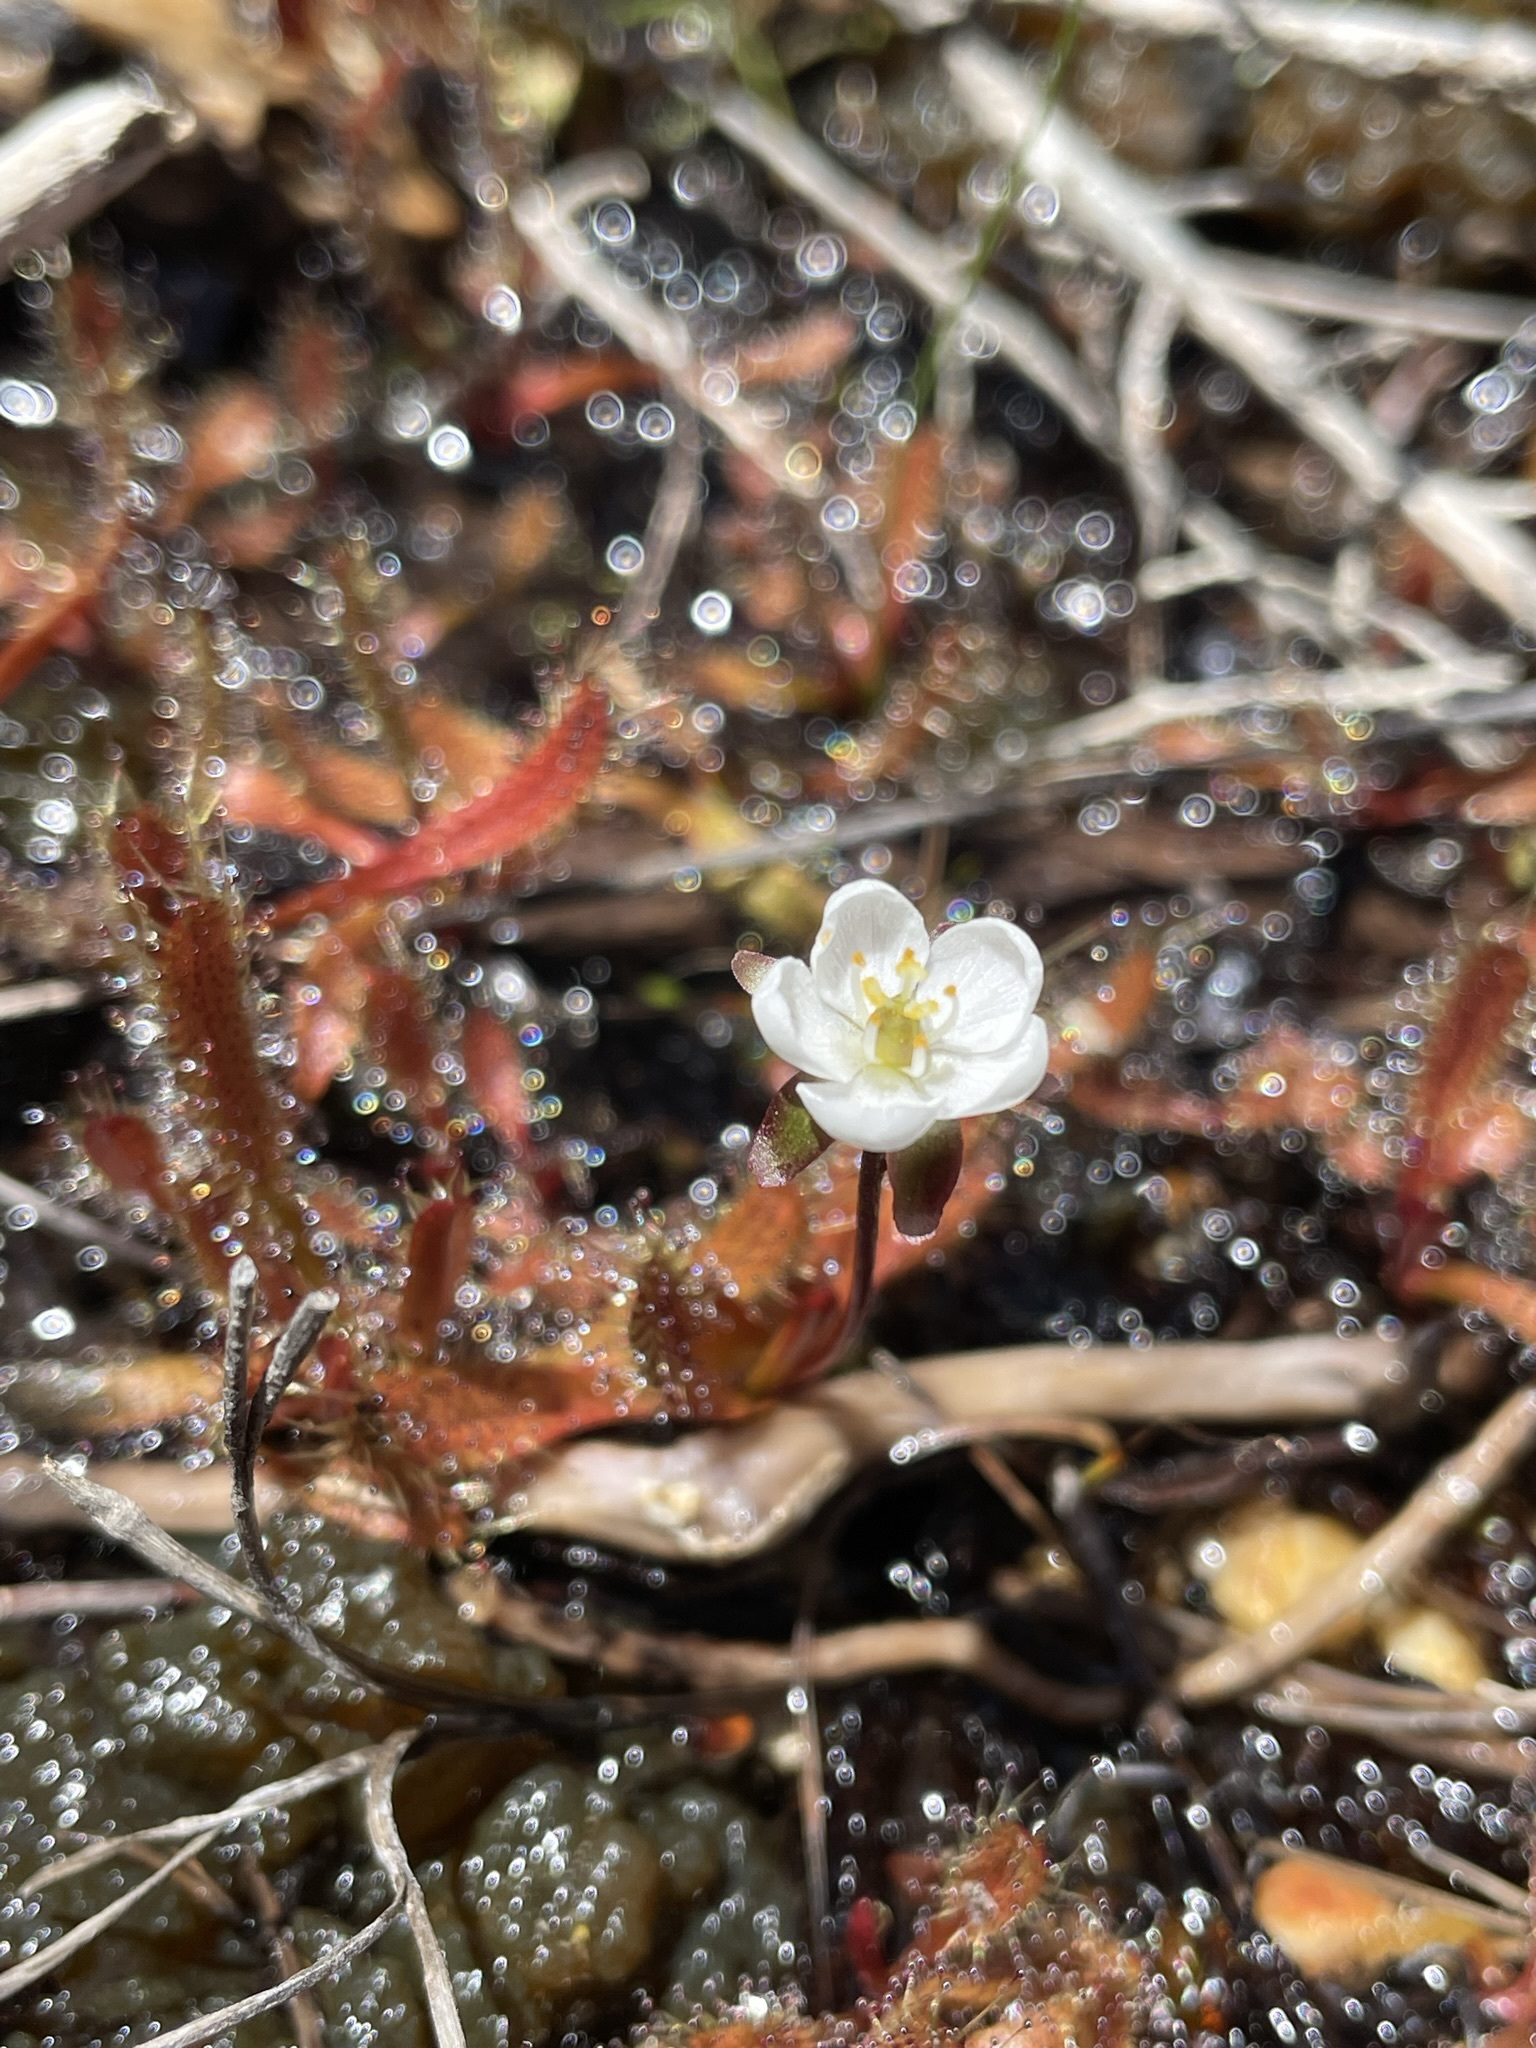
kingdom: Plantae
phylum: Tracheophyta
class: Magnoliopsida
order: Caryophyllales
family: Droseraceae
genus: Drosera
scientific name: Drosera arcturi
